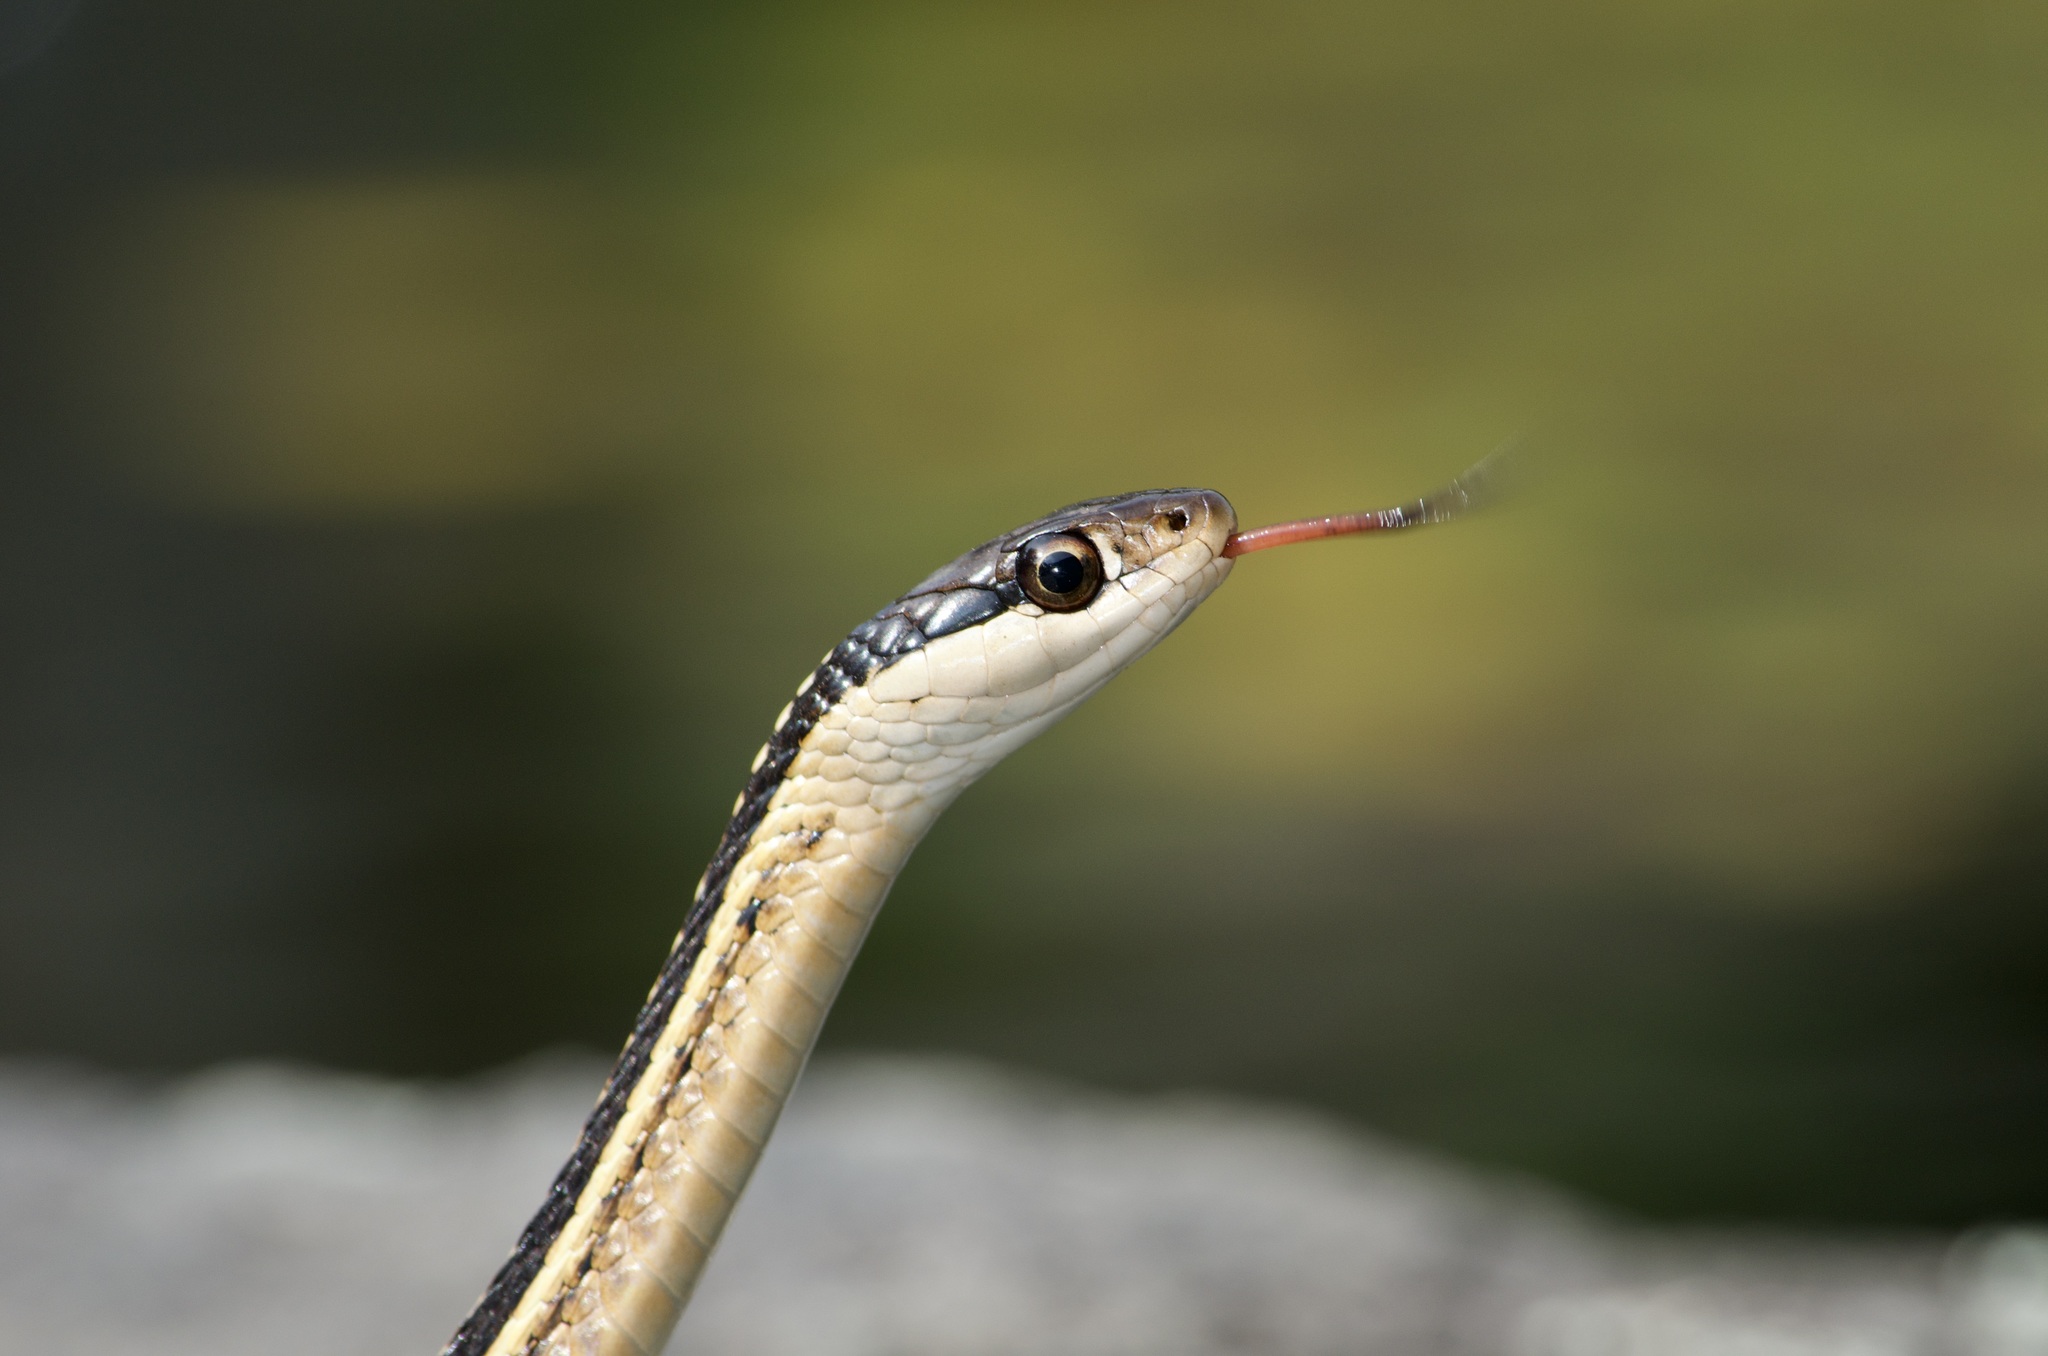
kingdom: Animalia
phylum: Chordata
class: Squamata
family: Colubridae
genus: Thamnophis
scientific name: Thamnophis saurita
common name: Eastern ribbonsnake
